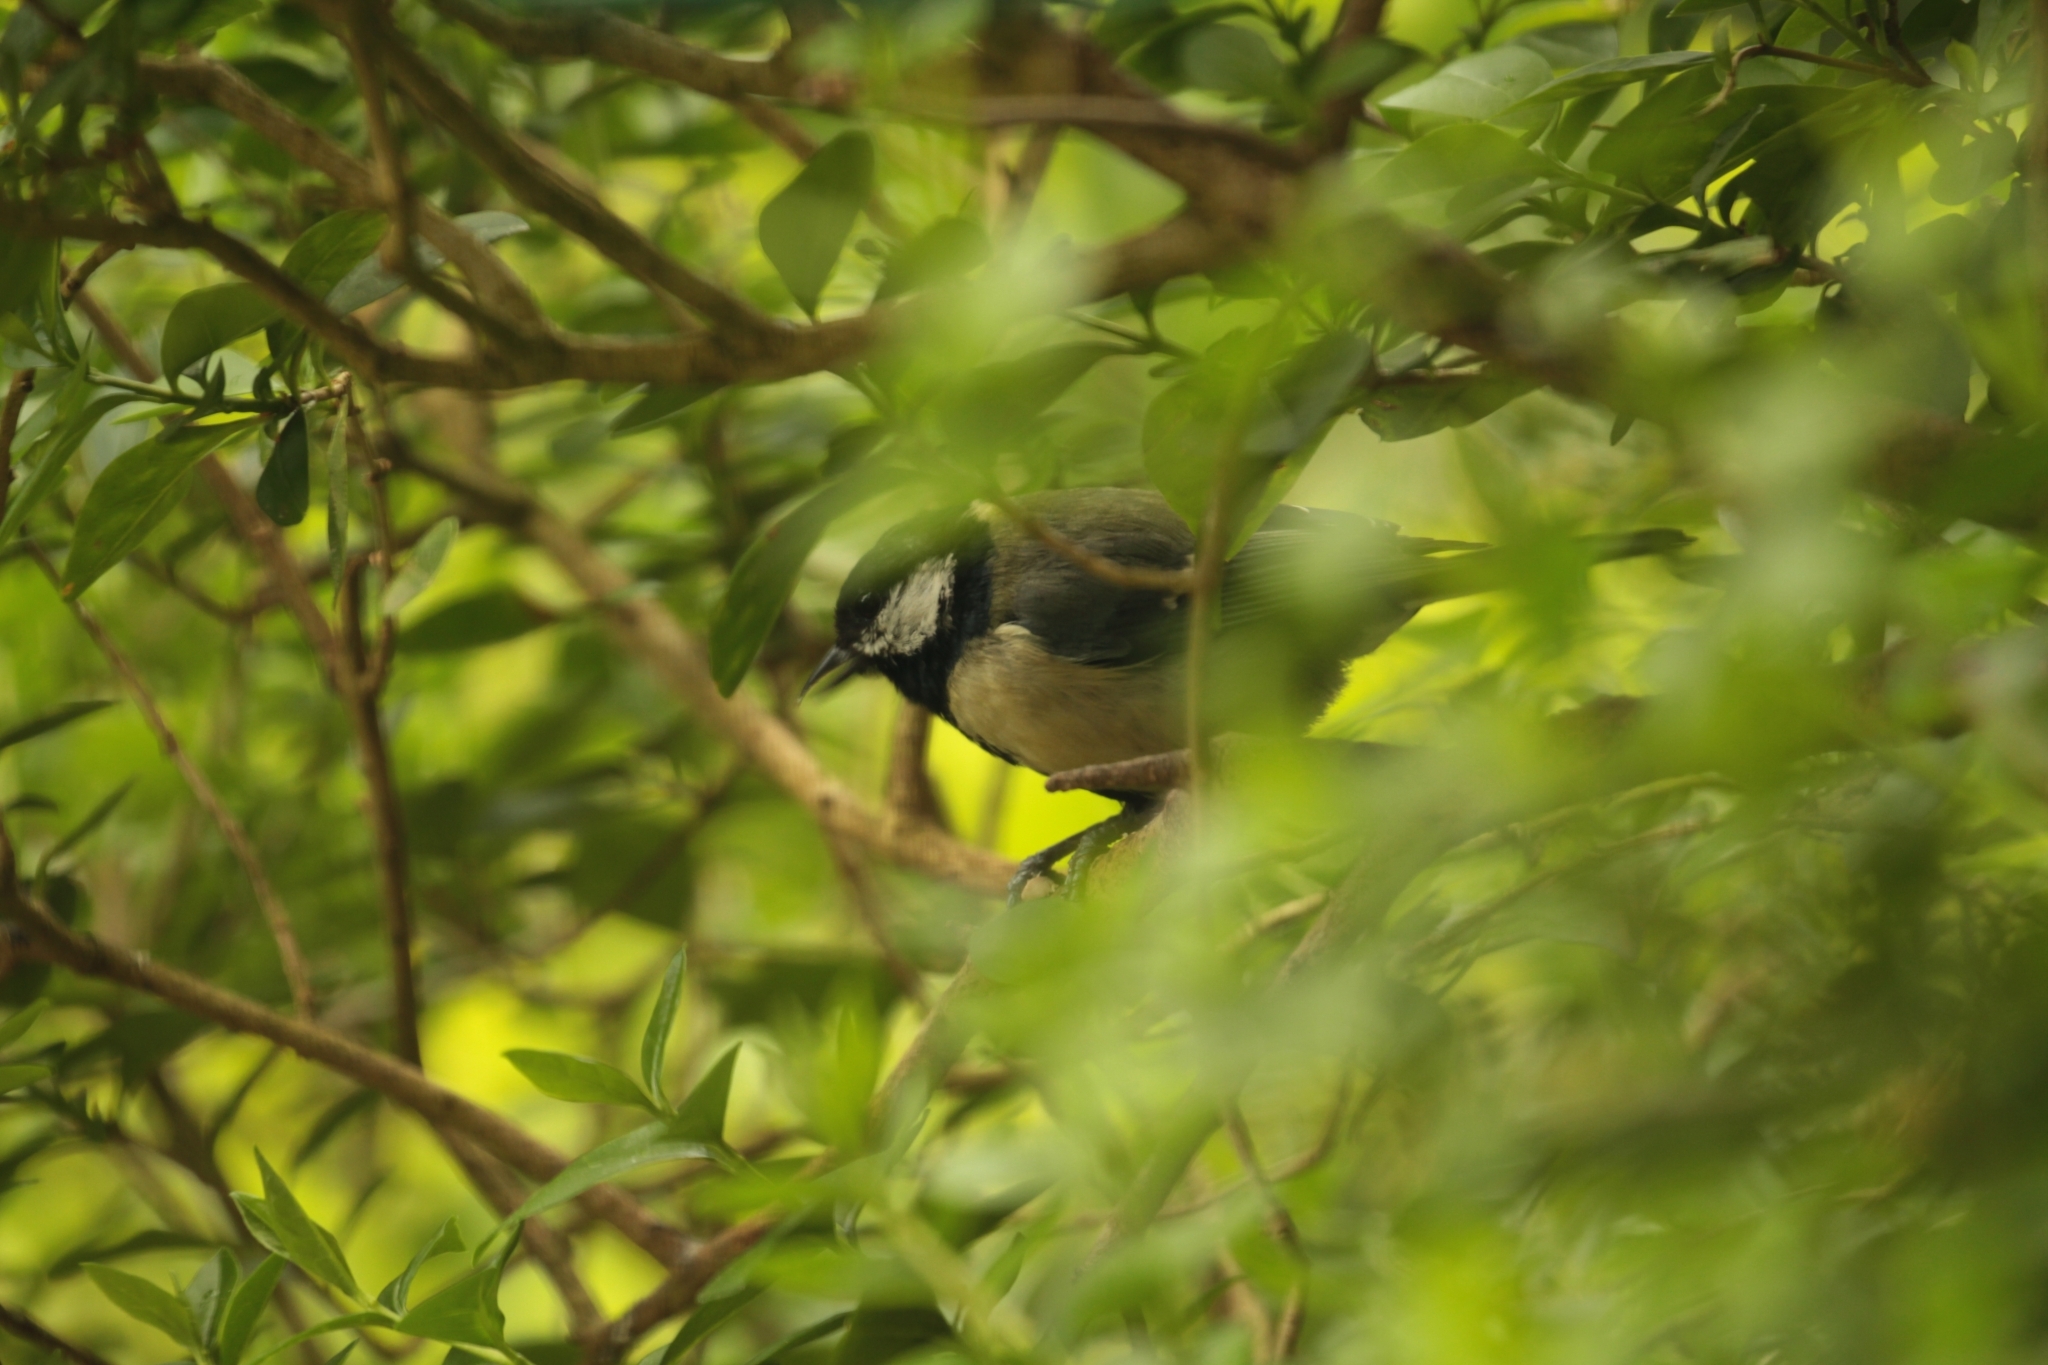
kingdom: Animalia
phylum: Chordata
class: Aves
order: Passeriformes
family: Paridae
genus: Parus
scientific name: Parus major
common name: Great tit
